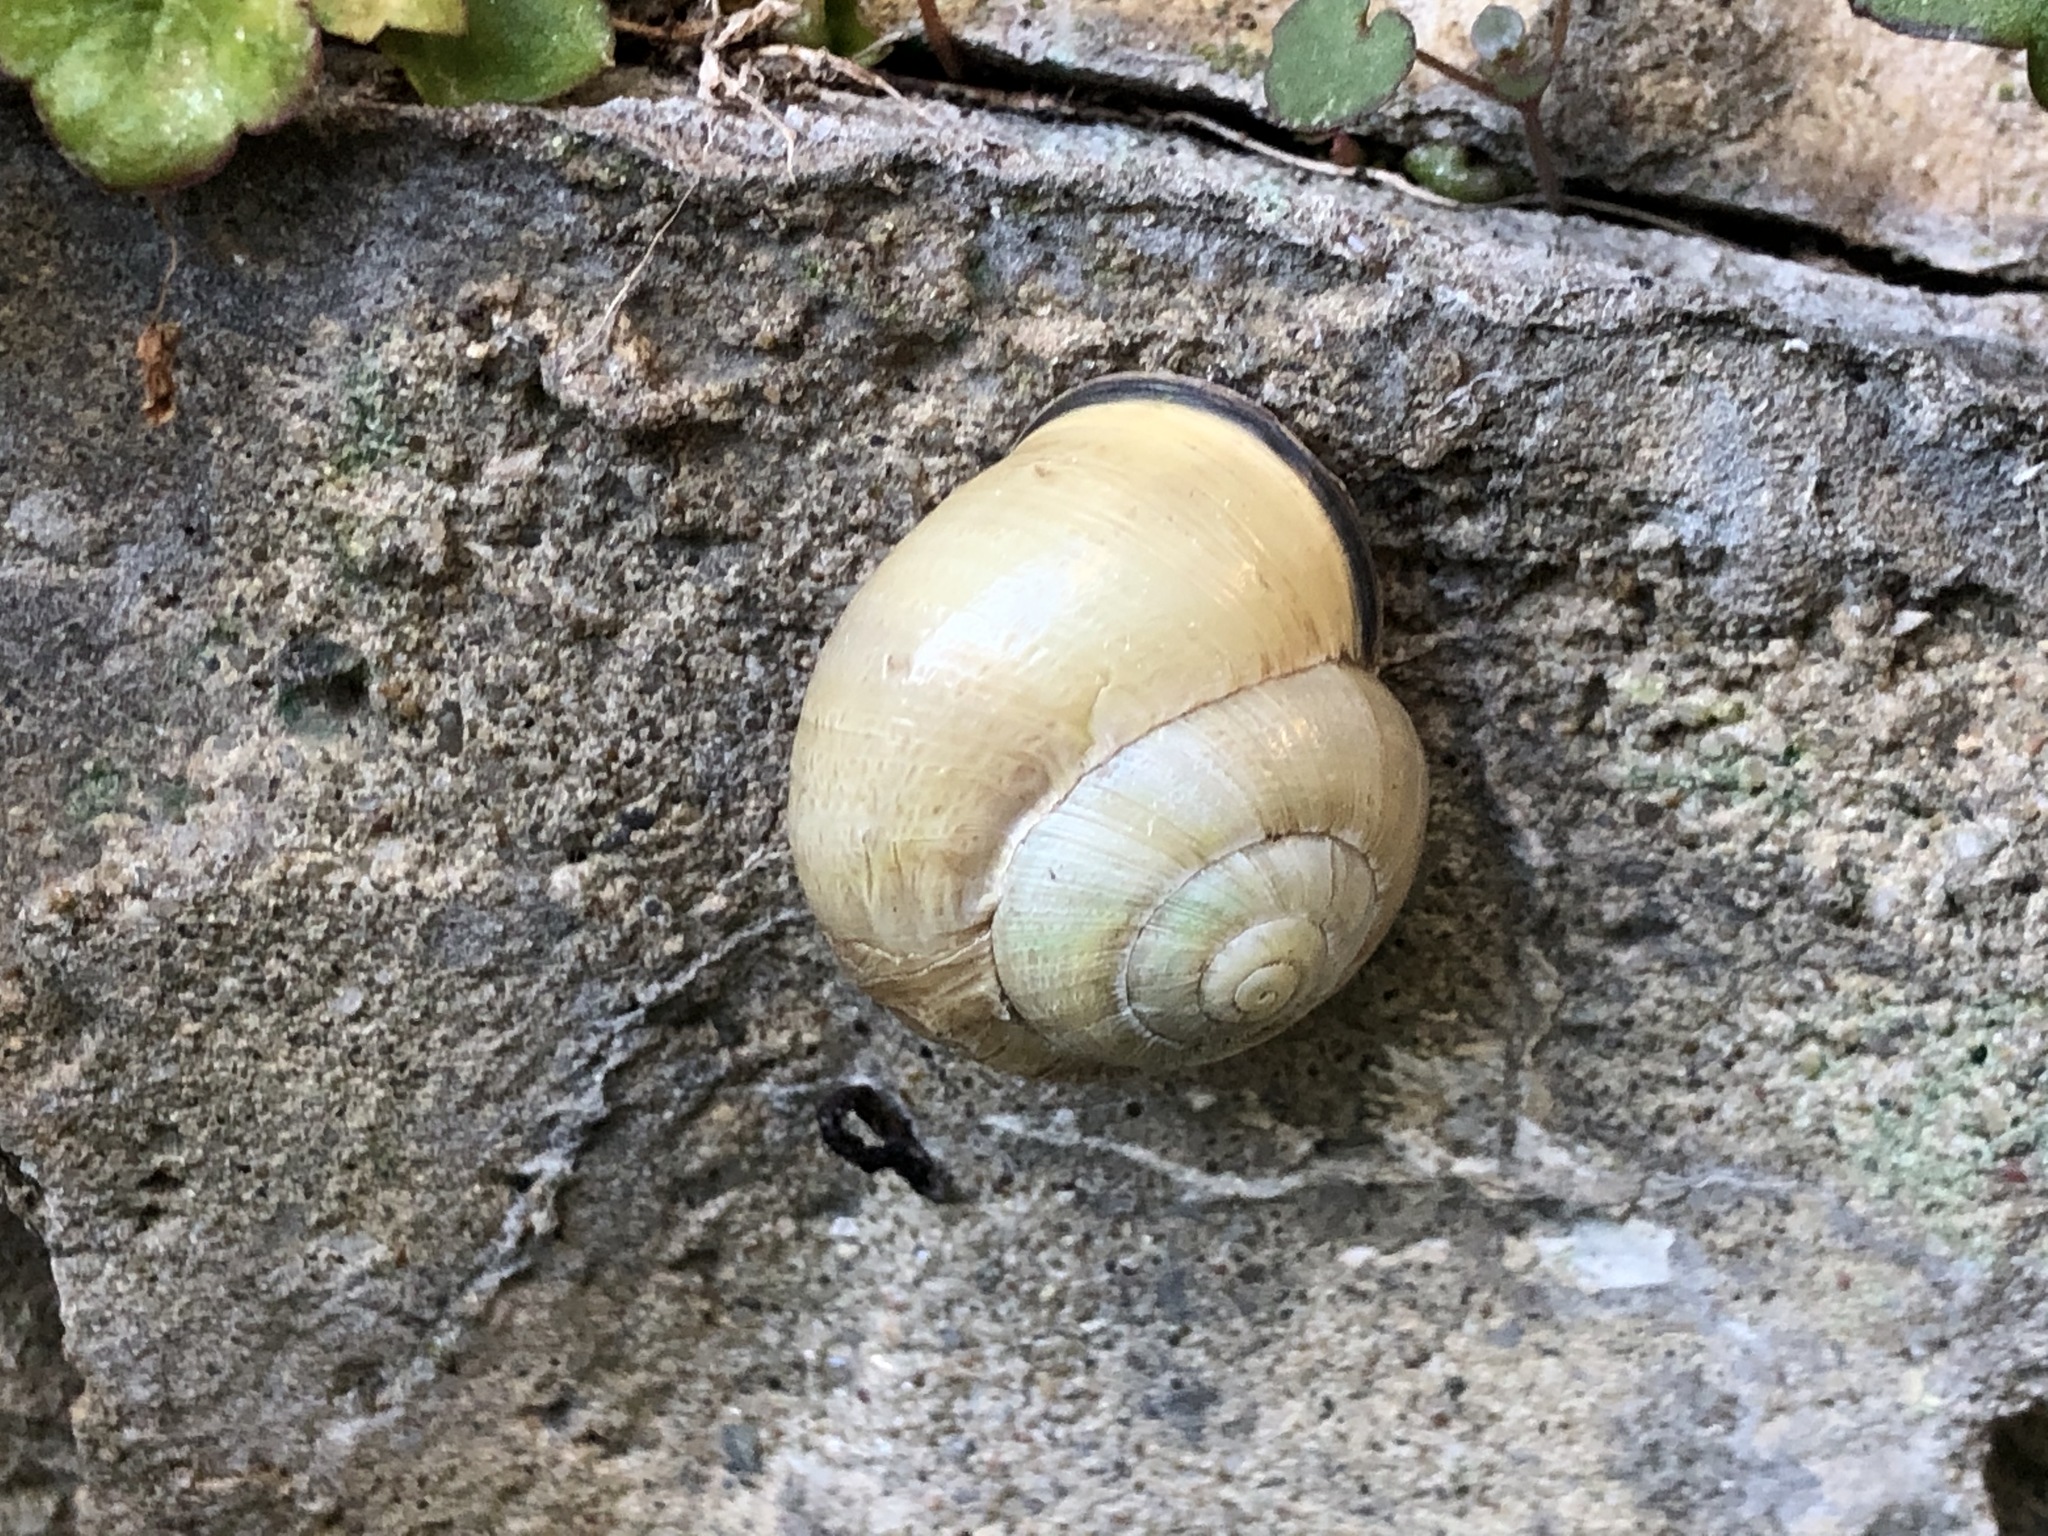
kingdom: Animalia
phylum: Mollusca
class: Gastropoda
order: Stylommatophora
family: Helicidae
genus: Cepaea
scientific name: Cepaea nemoralis
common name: Grovesnail
